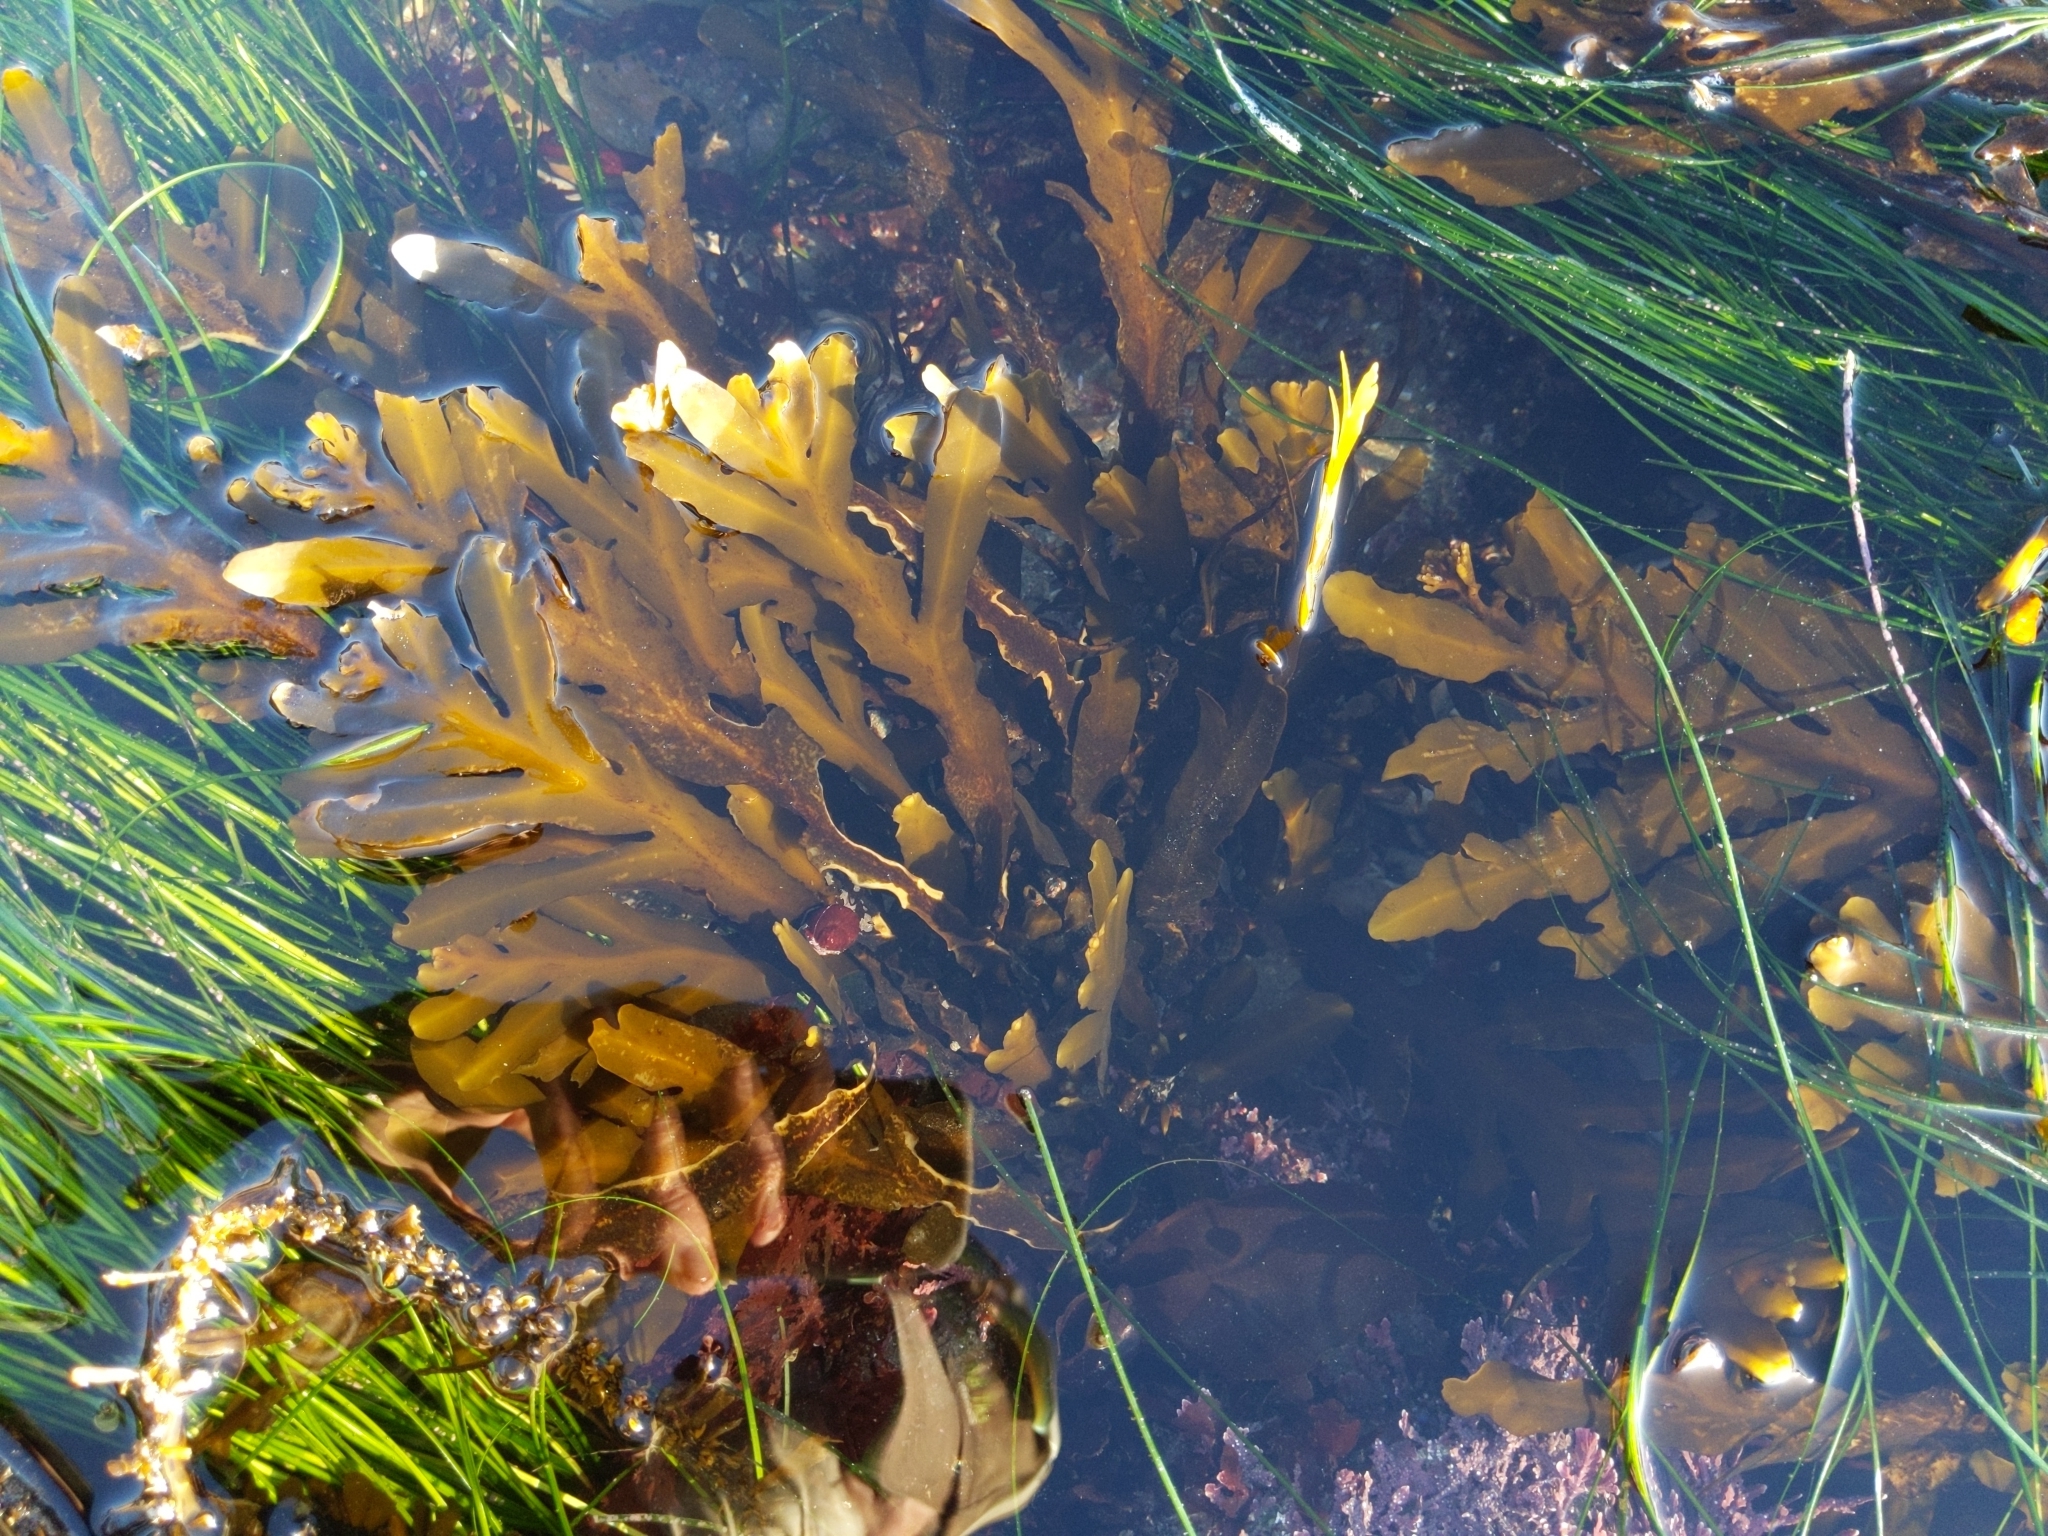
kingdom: Chromista
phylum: Ochrophyta
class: Phaeophyceae
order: Fucales
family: Sargassaceae
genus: Stephanocystis
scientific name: Stephanocystis
